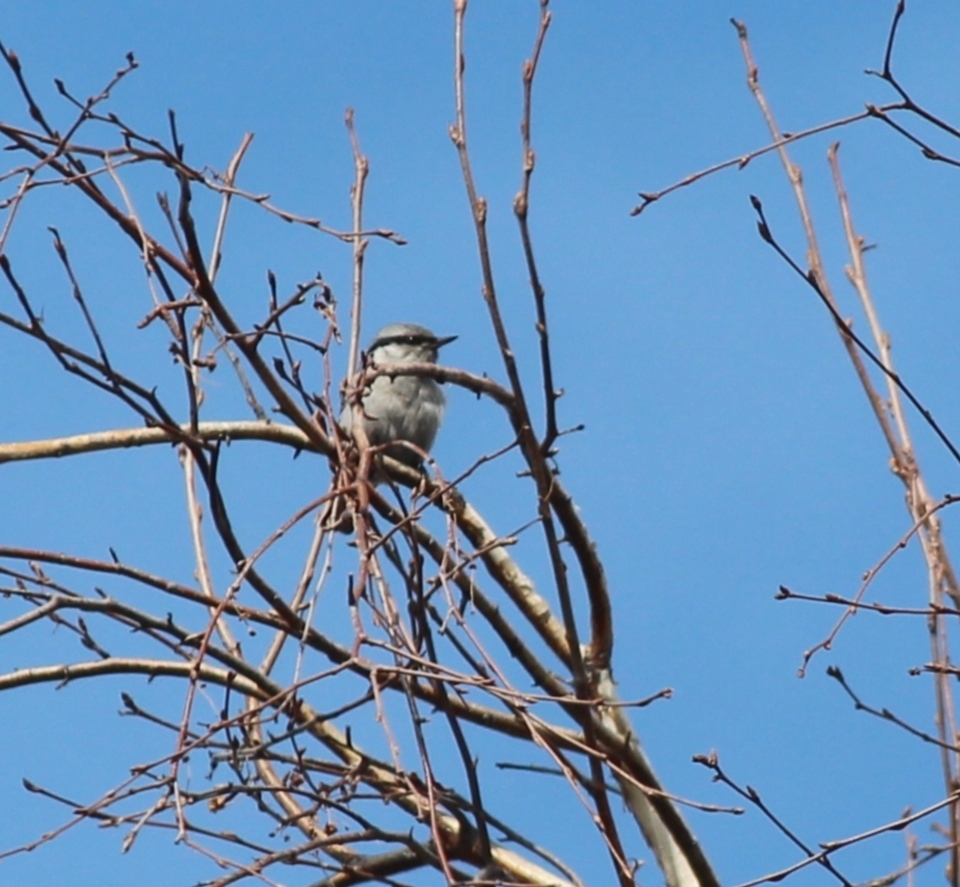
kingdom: Animalia
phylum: Chordata
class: Aves
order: Passeriformes
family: Sittidae
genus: Sitta
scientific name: Sitta europaea
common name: Eurasian nuthatch
